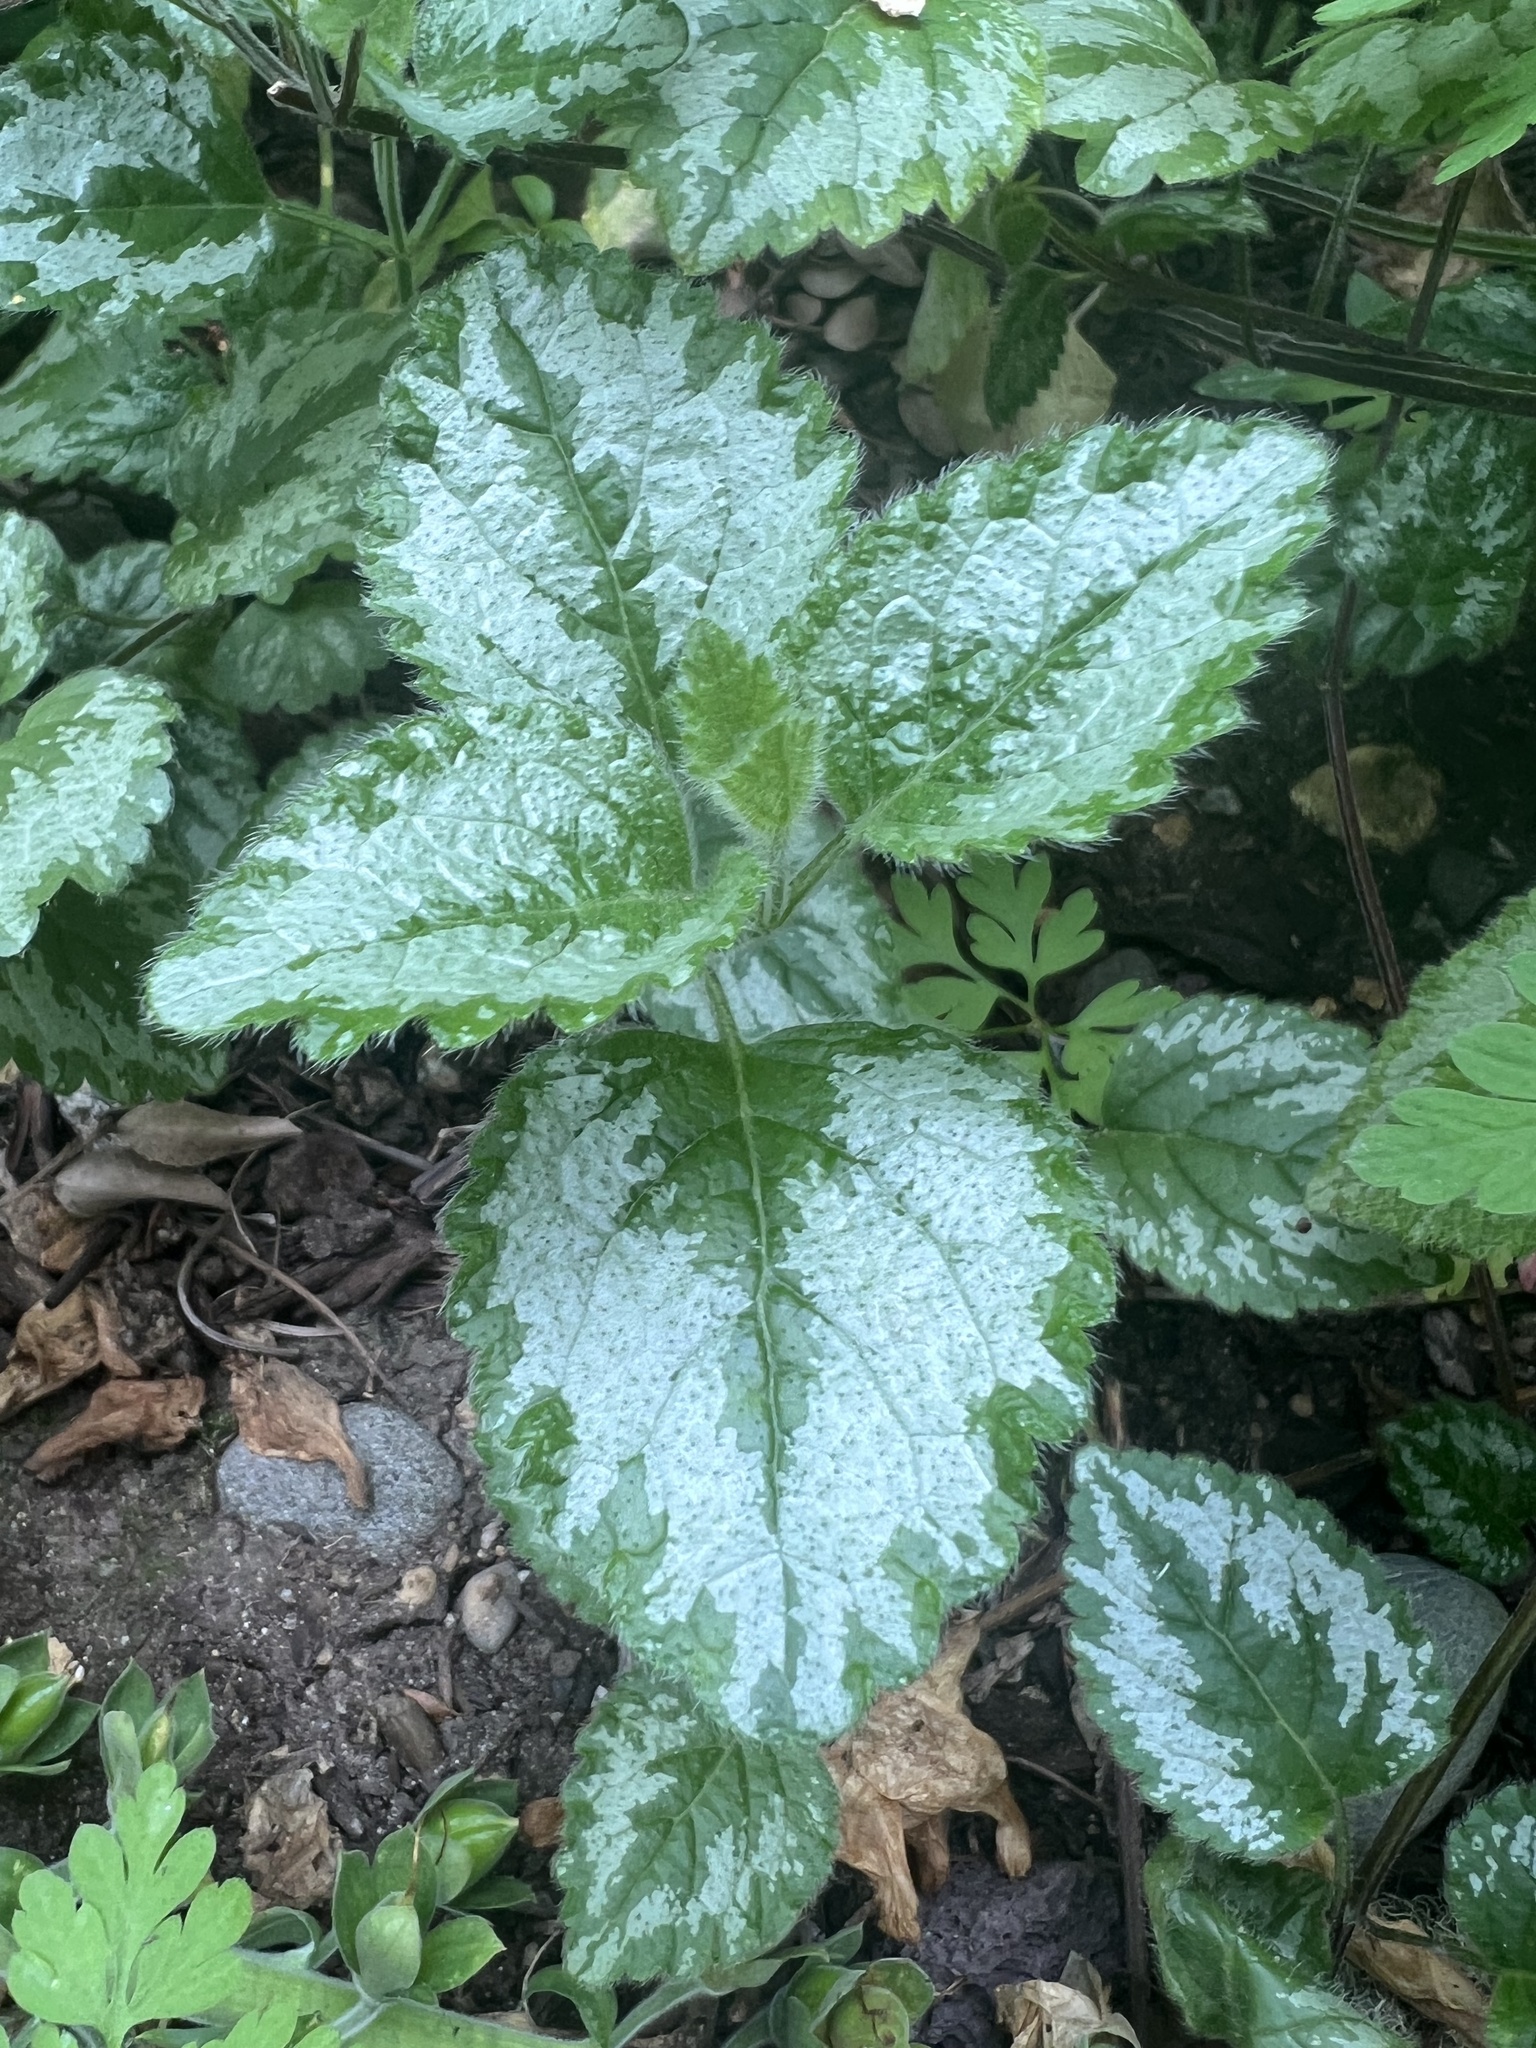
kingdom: Plantae
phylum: Tracheophyta
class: Magnoliopsida
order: Lamiales
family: Lamiaceae
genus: Lamium
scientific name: Lamium galeobdolon
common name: Yellow archangel
